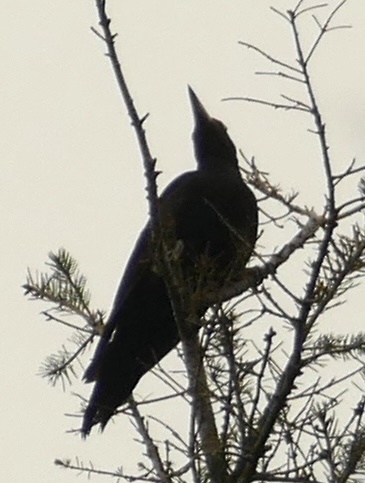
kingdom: Animalia
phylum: Chordata
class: Aves
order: Piciformes
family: Picidae
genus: Dryocopus
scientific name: Dryocopus martius
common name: Black woodpecker
